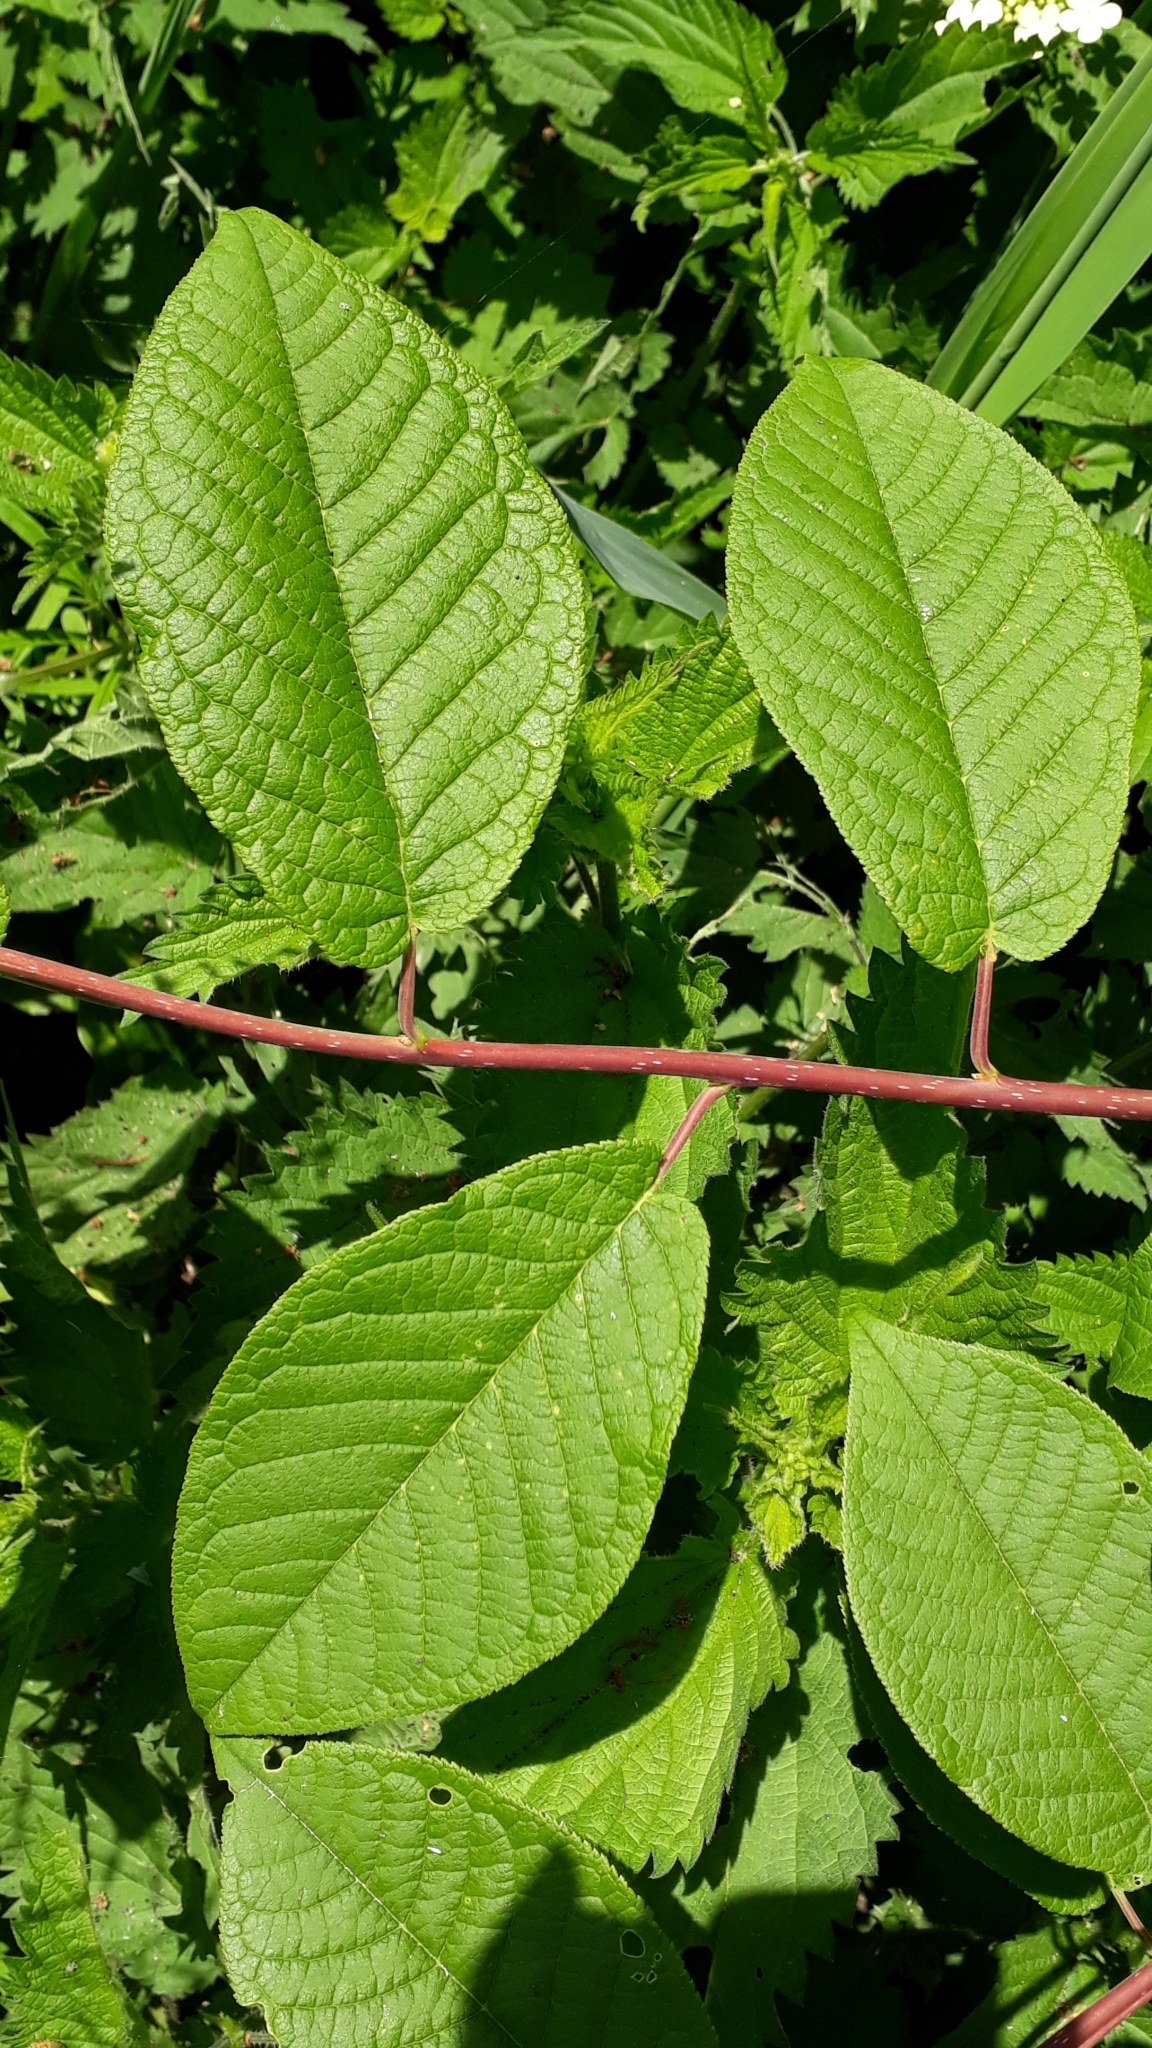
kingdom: Plantae
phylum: Tracheophyta
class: Magnoliopsida
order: Rosales
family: Rosaceae
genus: Prunus
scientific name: Prunus padus
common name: Bird cherry
